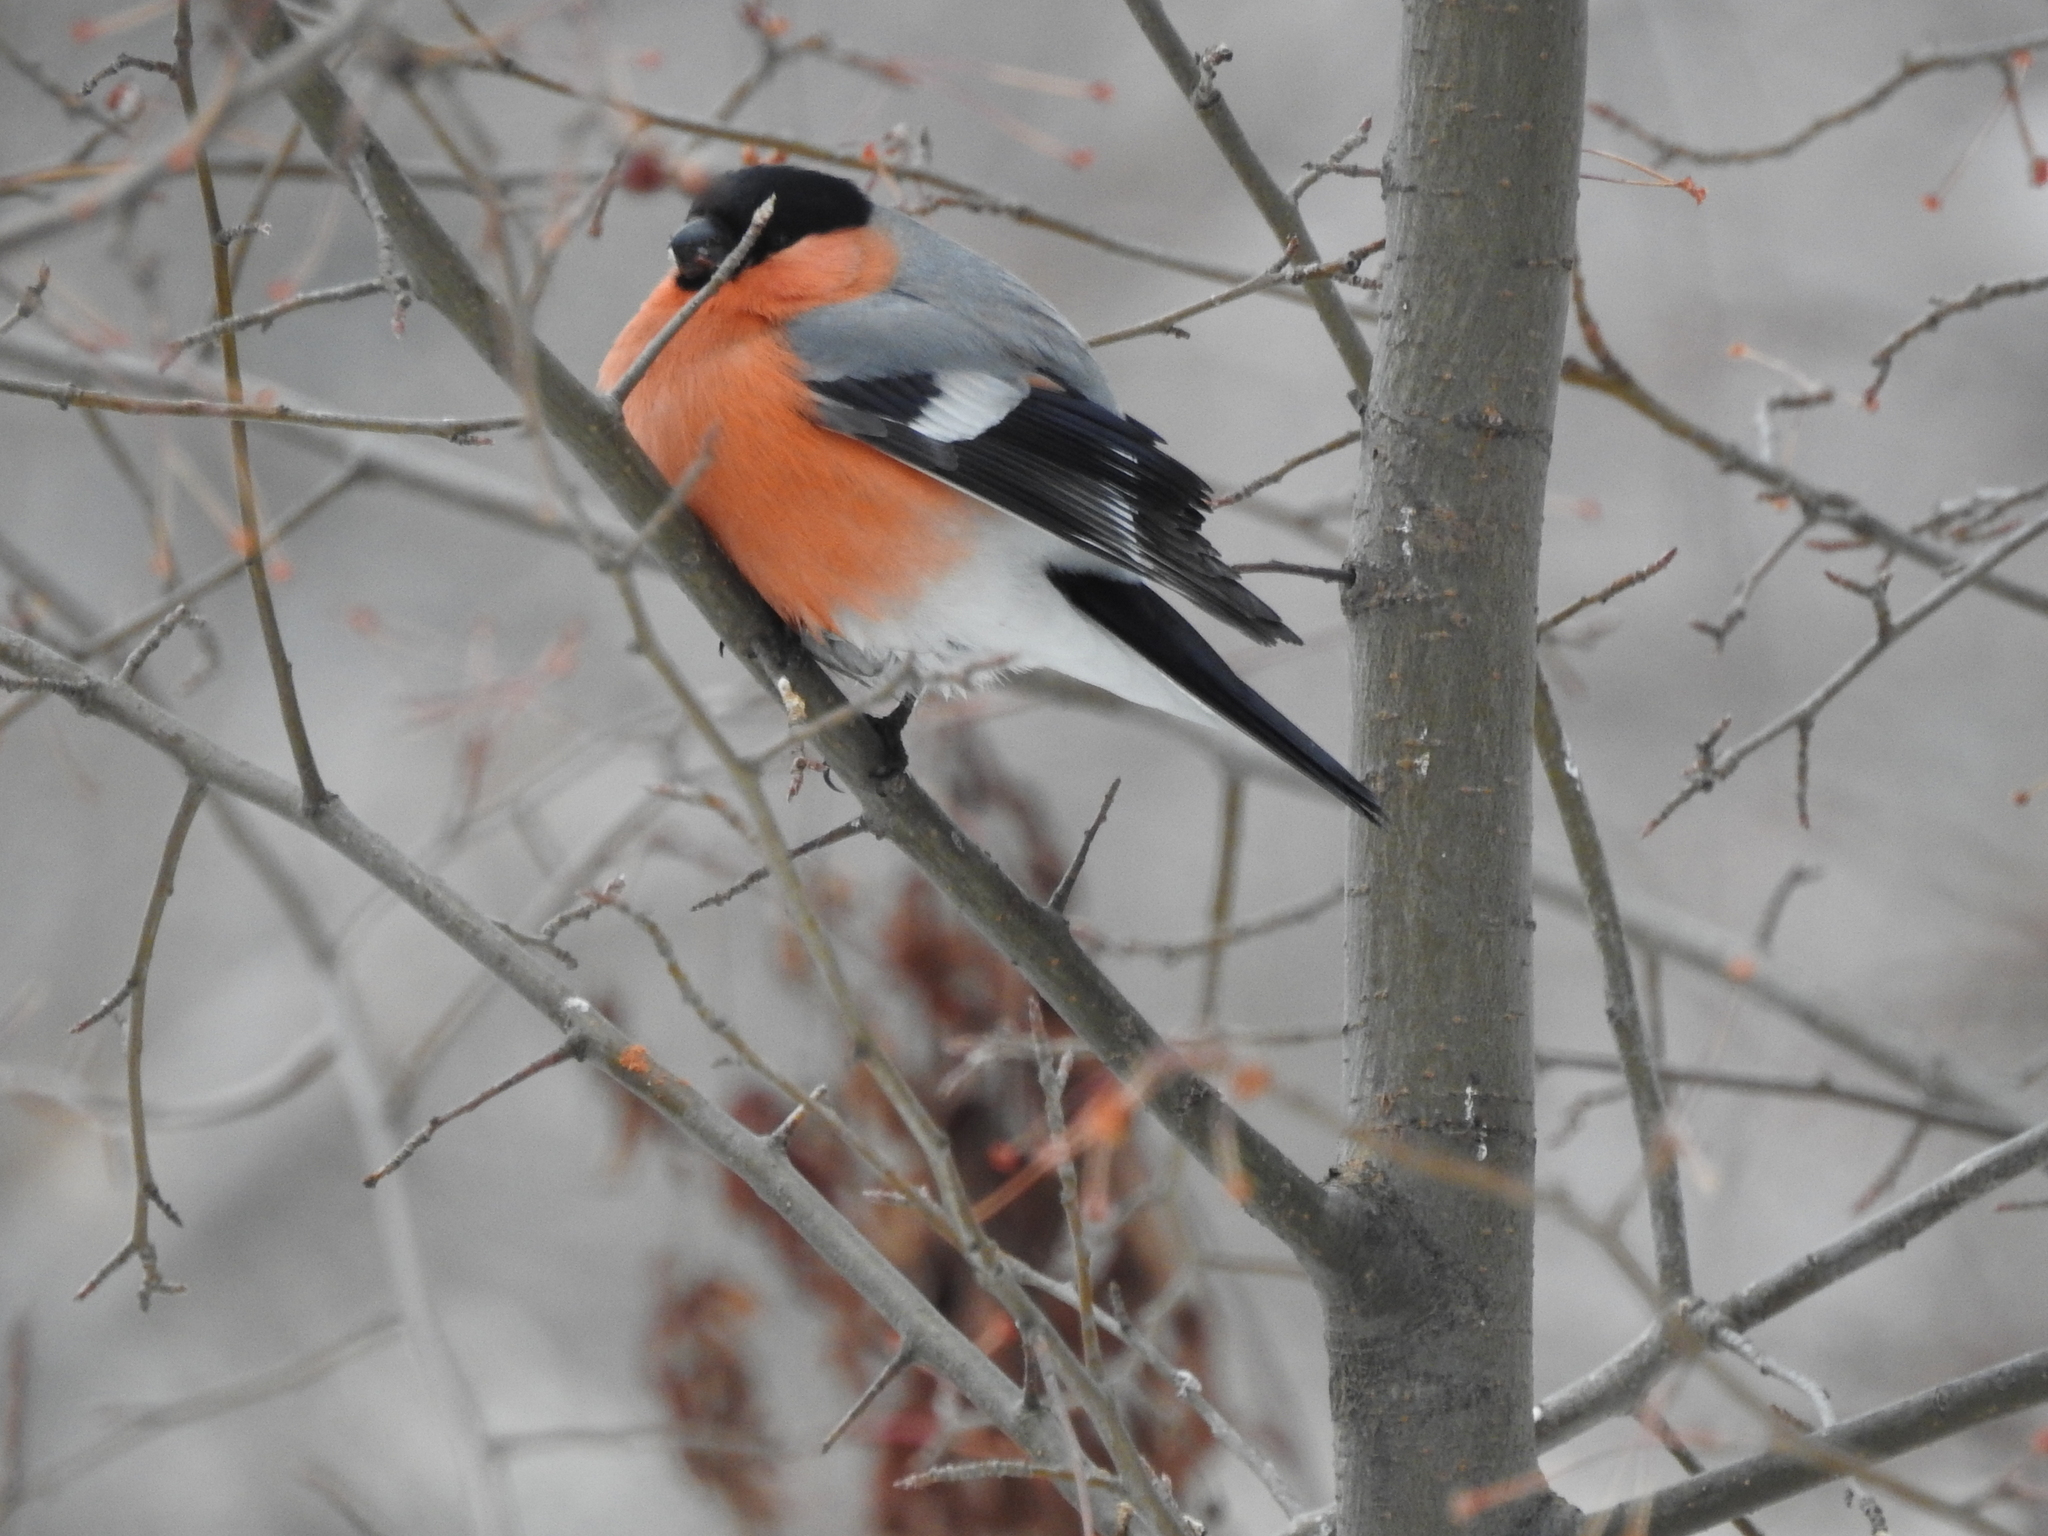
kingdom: Animalia
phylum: Chordata
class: Aves
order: Passeriformes
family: Fringillidae
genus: Pyrrhula
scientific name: Pyrrhula pyrrhula
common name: Eurasian bullfinch
